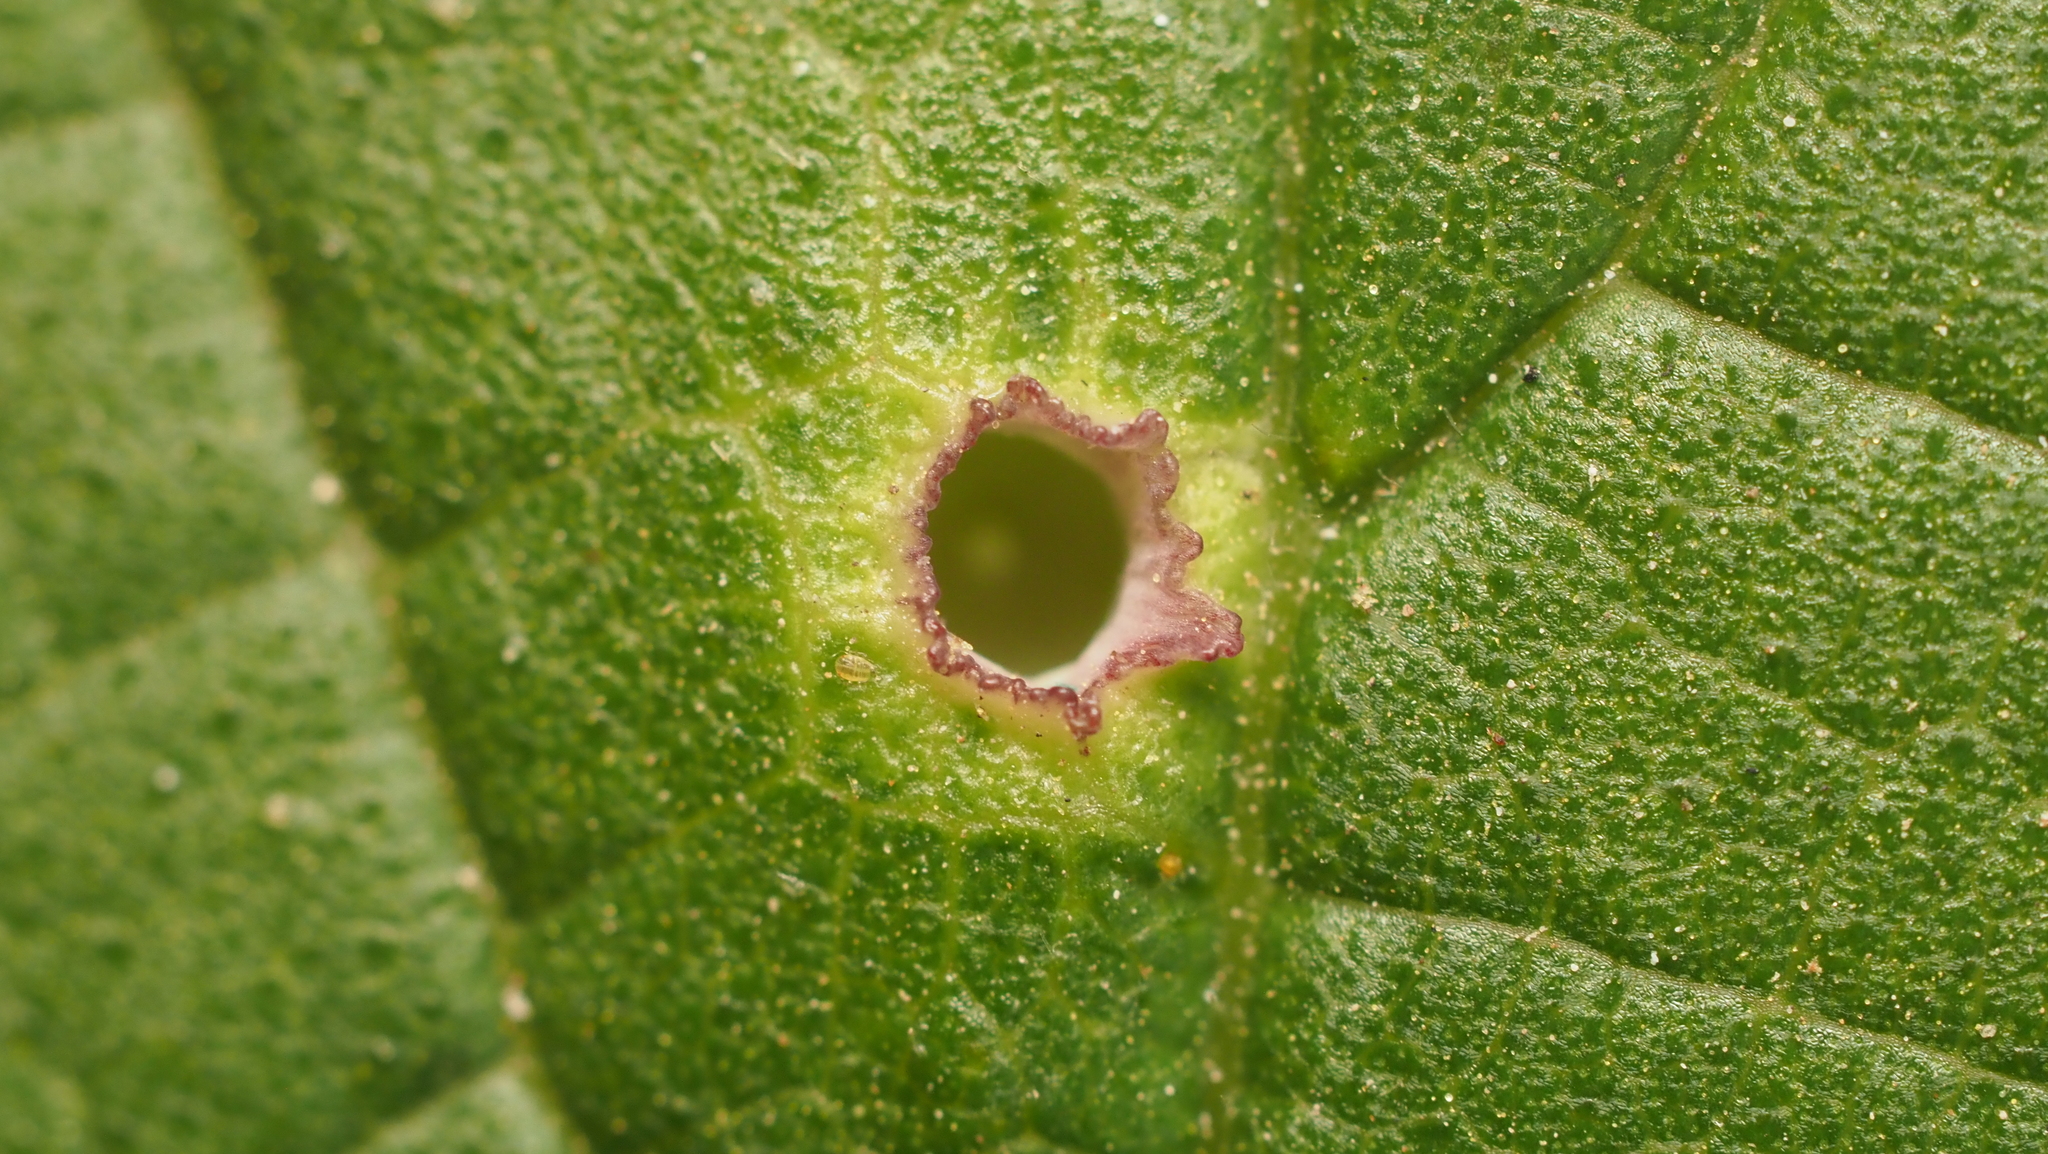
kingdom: Animalia
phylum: Arthropoda
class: Insecta
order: Hemiptera
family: Aphalaridae
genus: Pachypsylla
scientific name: Pachypsylla celtidismamma
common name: Hackberry nipplegall psyllid
